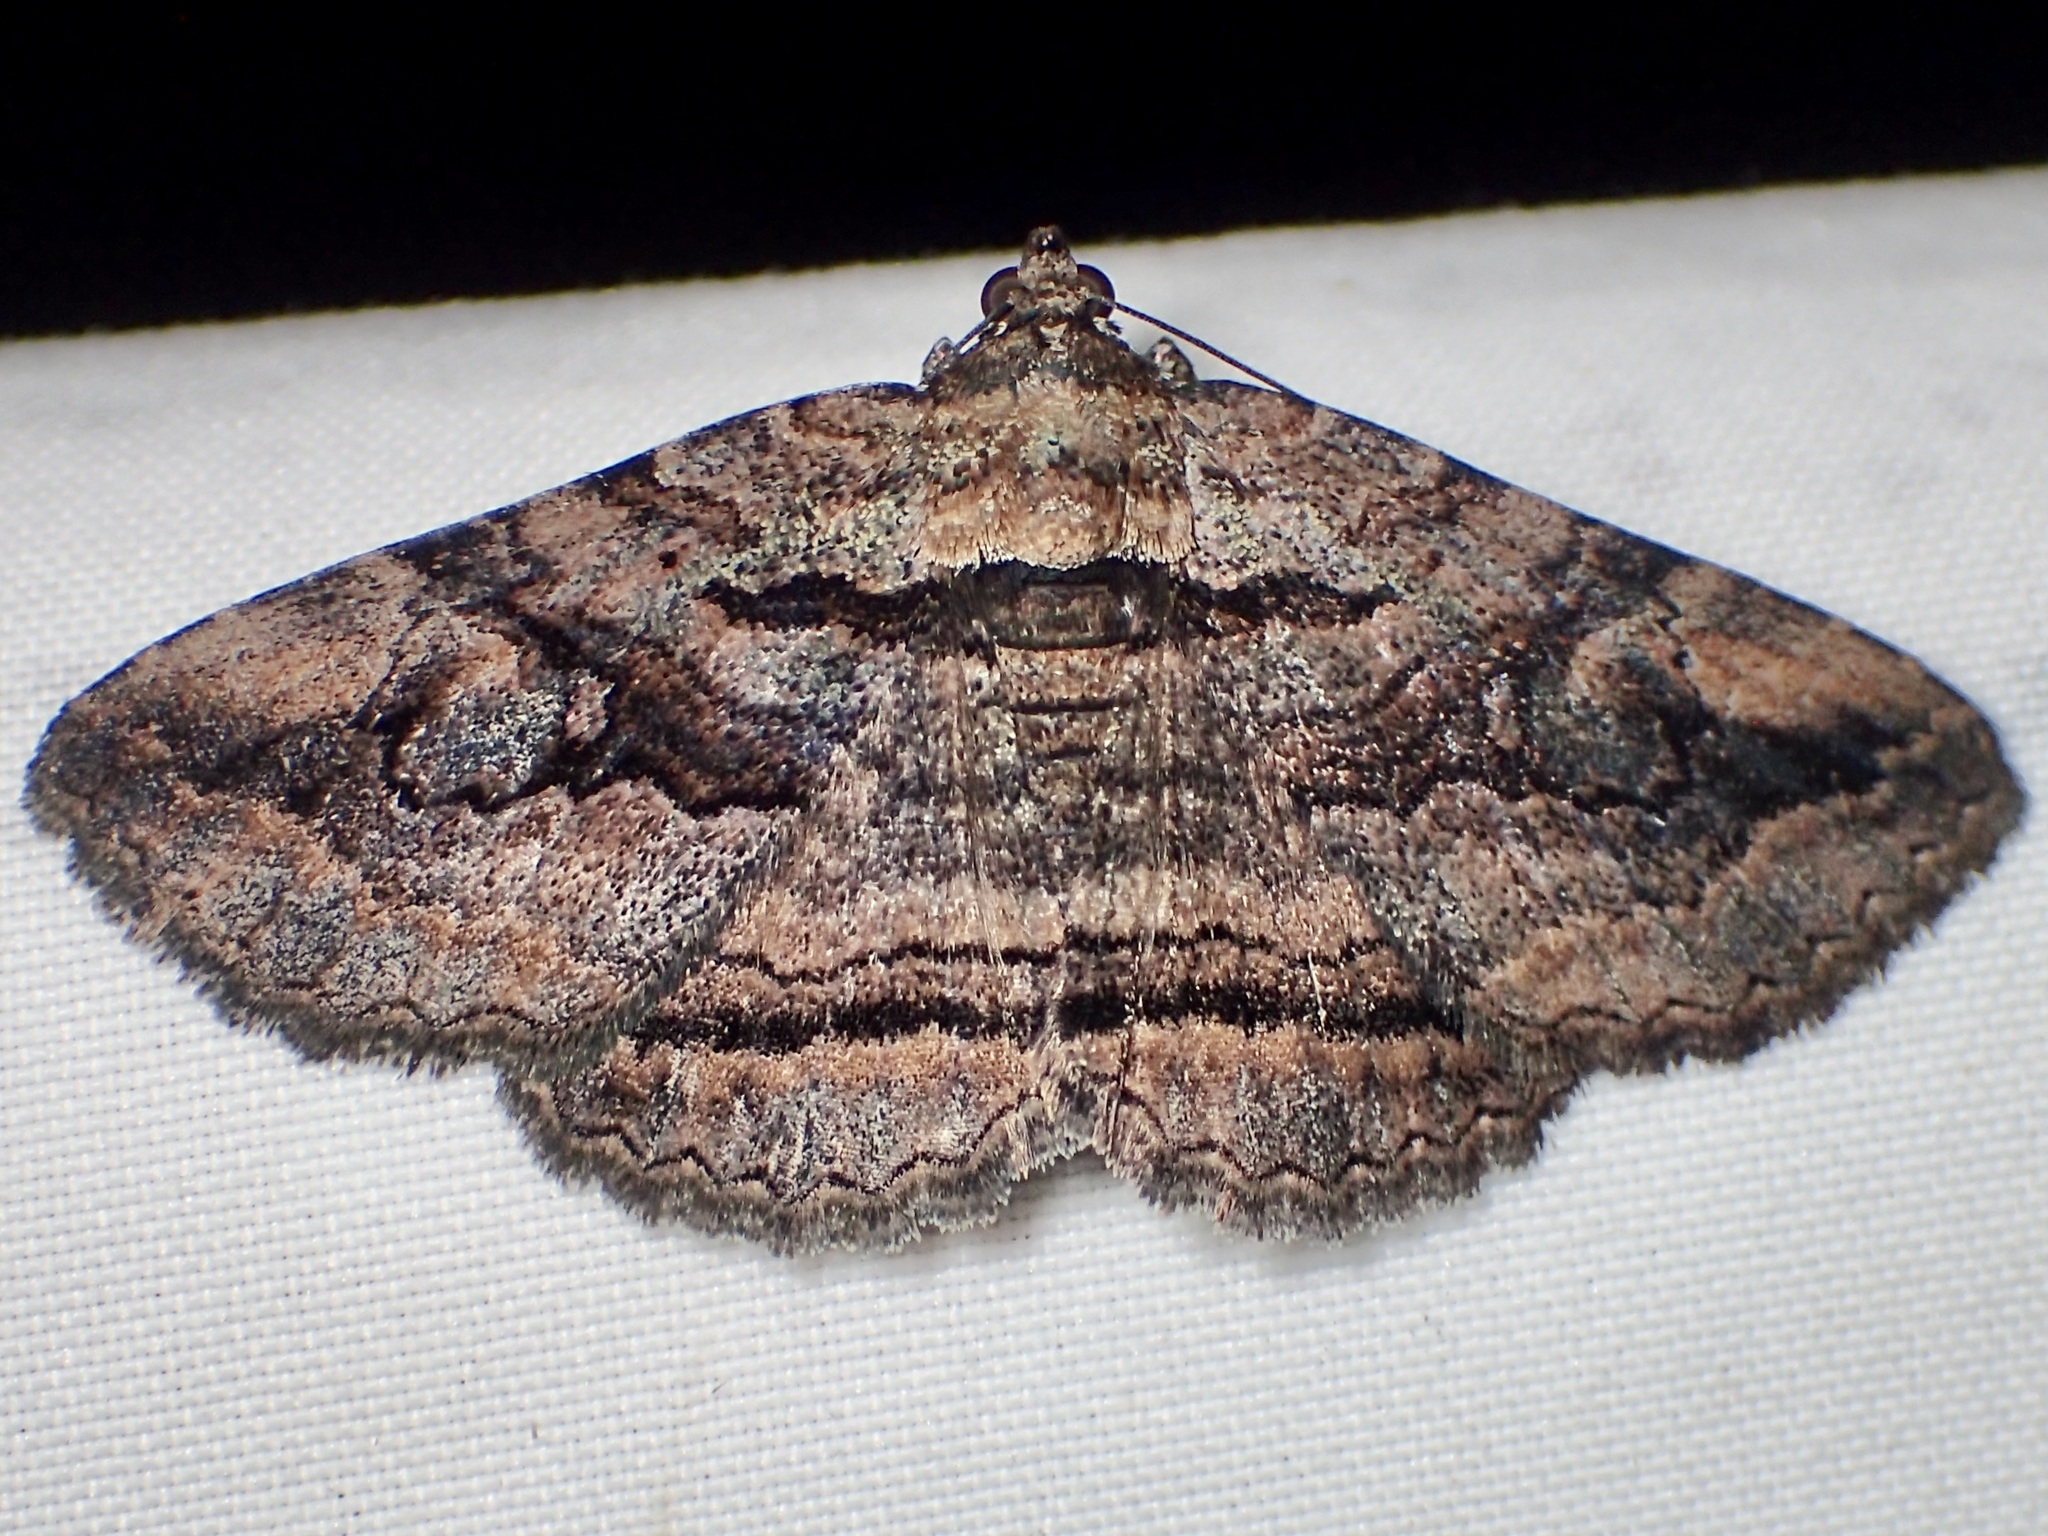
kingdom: Animalia
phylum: Arthropoda
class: Insecta
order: Lepidoptera
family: Erebidae
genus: Zaleops
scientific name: Zaleops umbrina
